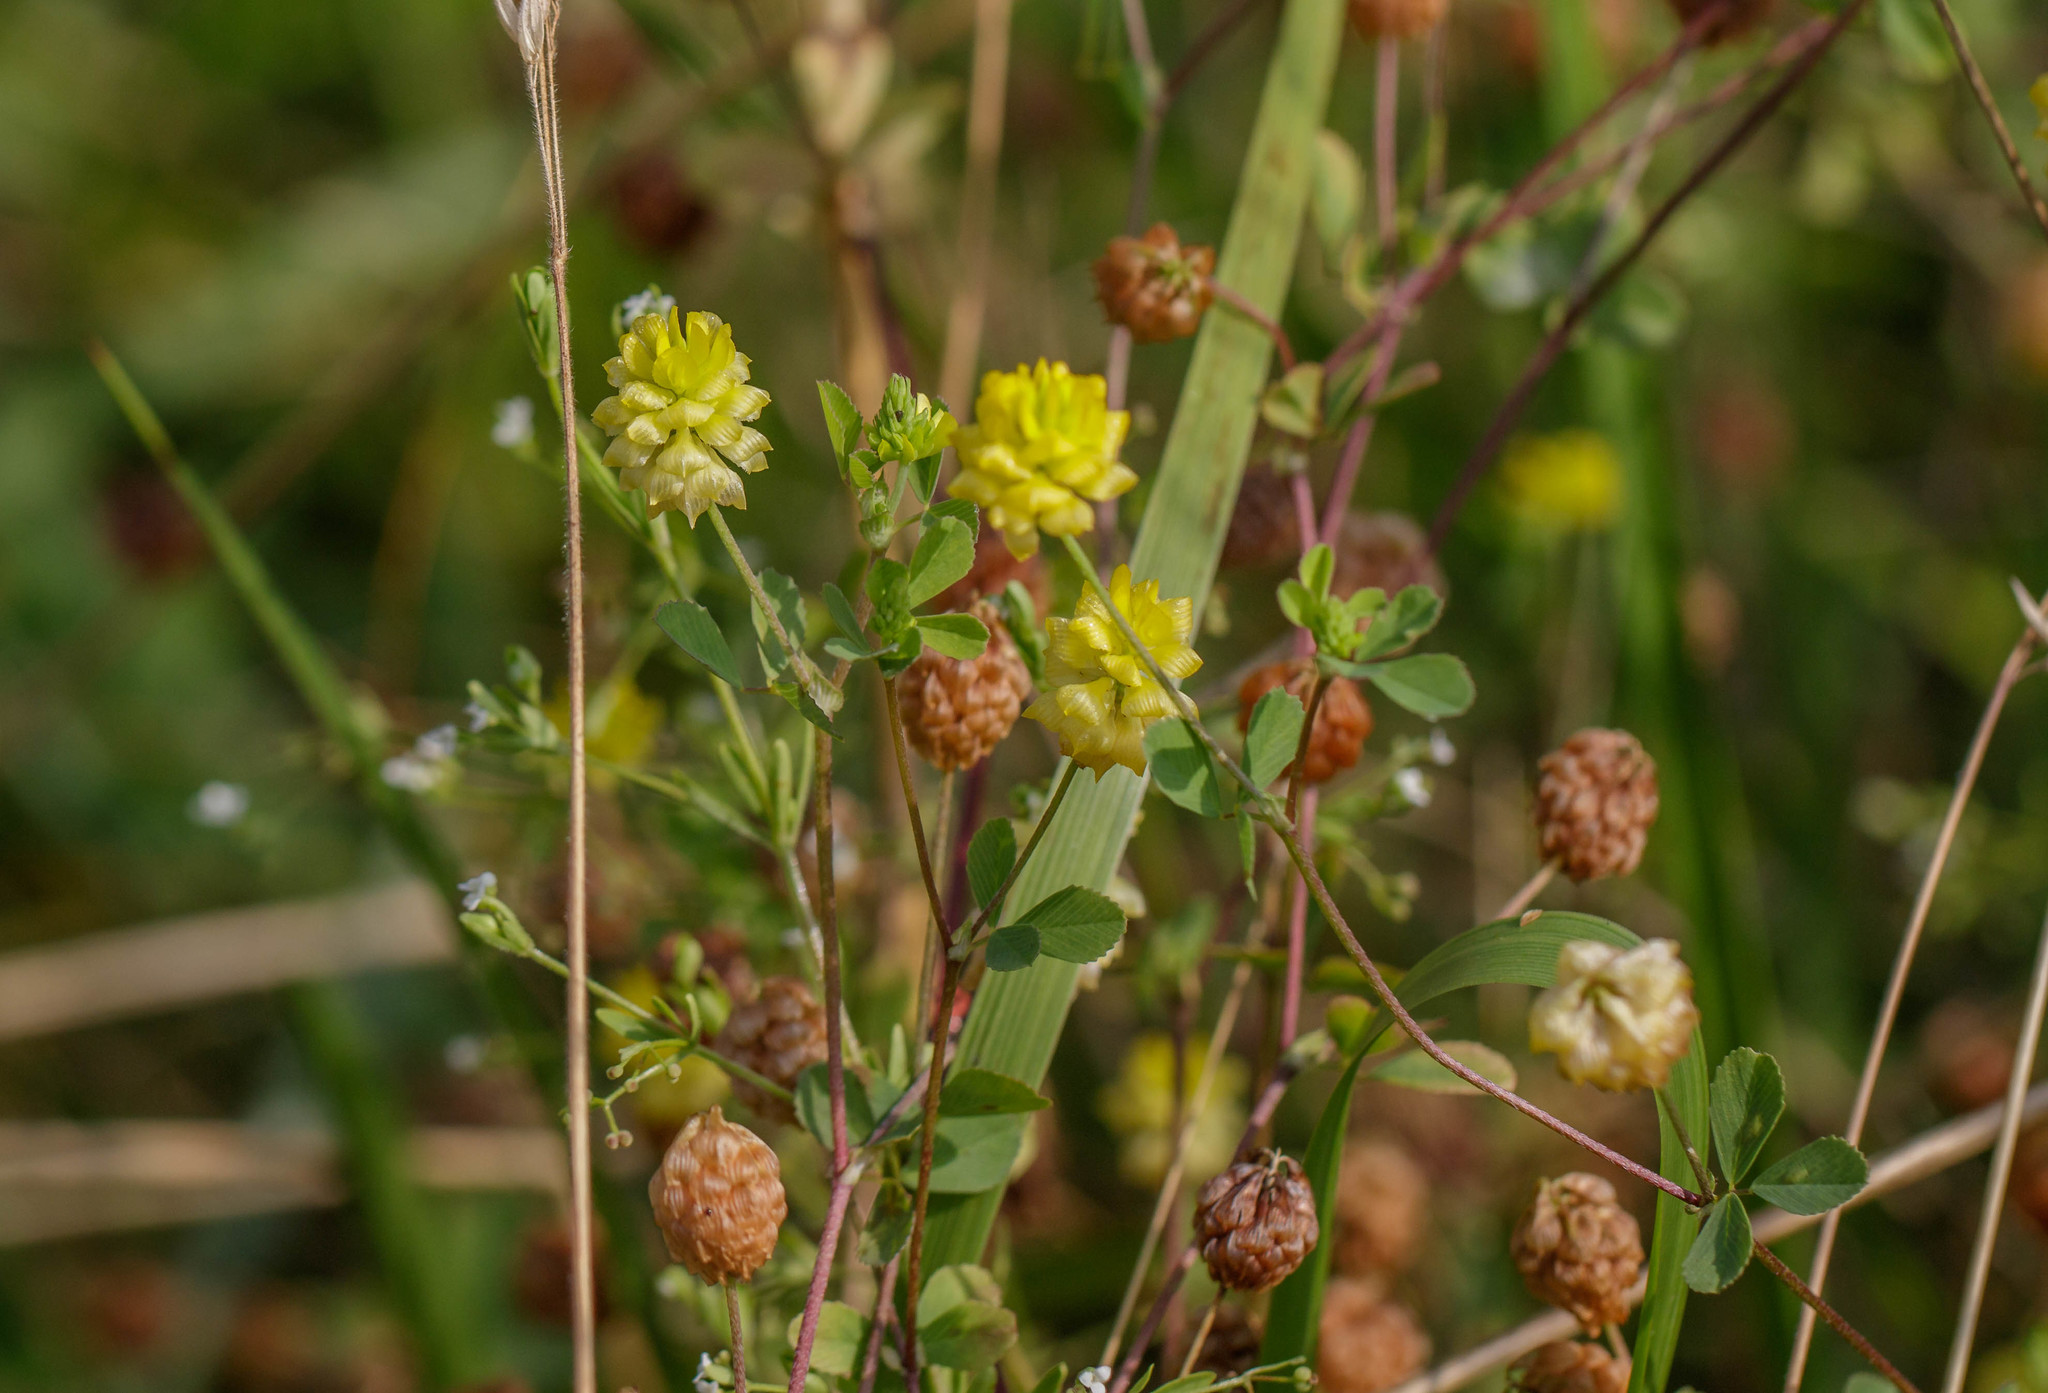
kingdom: Plantae
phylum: Tracheophyta
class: Magnoliopsida
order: Fabales
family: Fabaceae
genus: Trifolium
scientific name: Trifolium campestre
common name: Field clover
